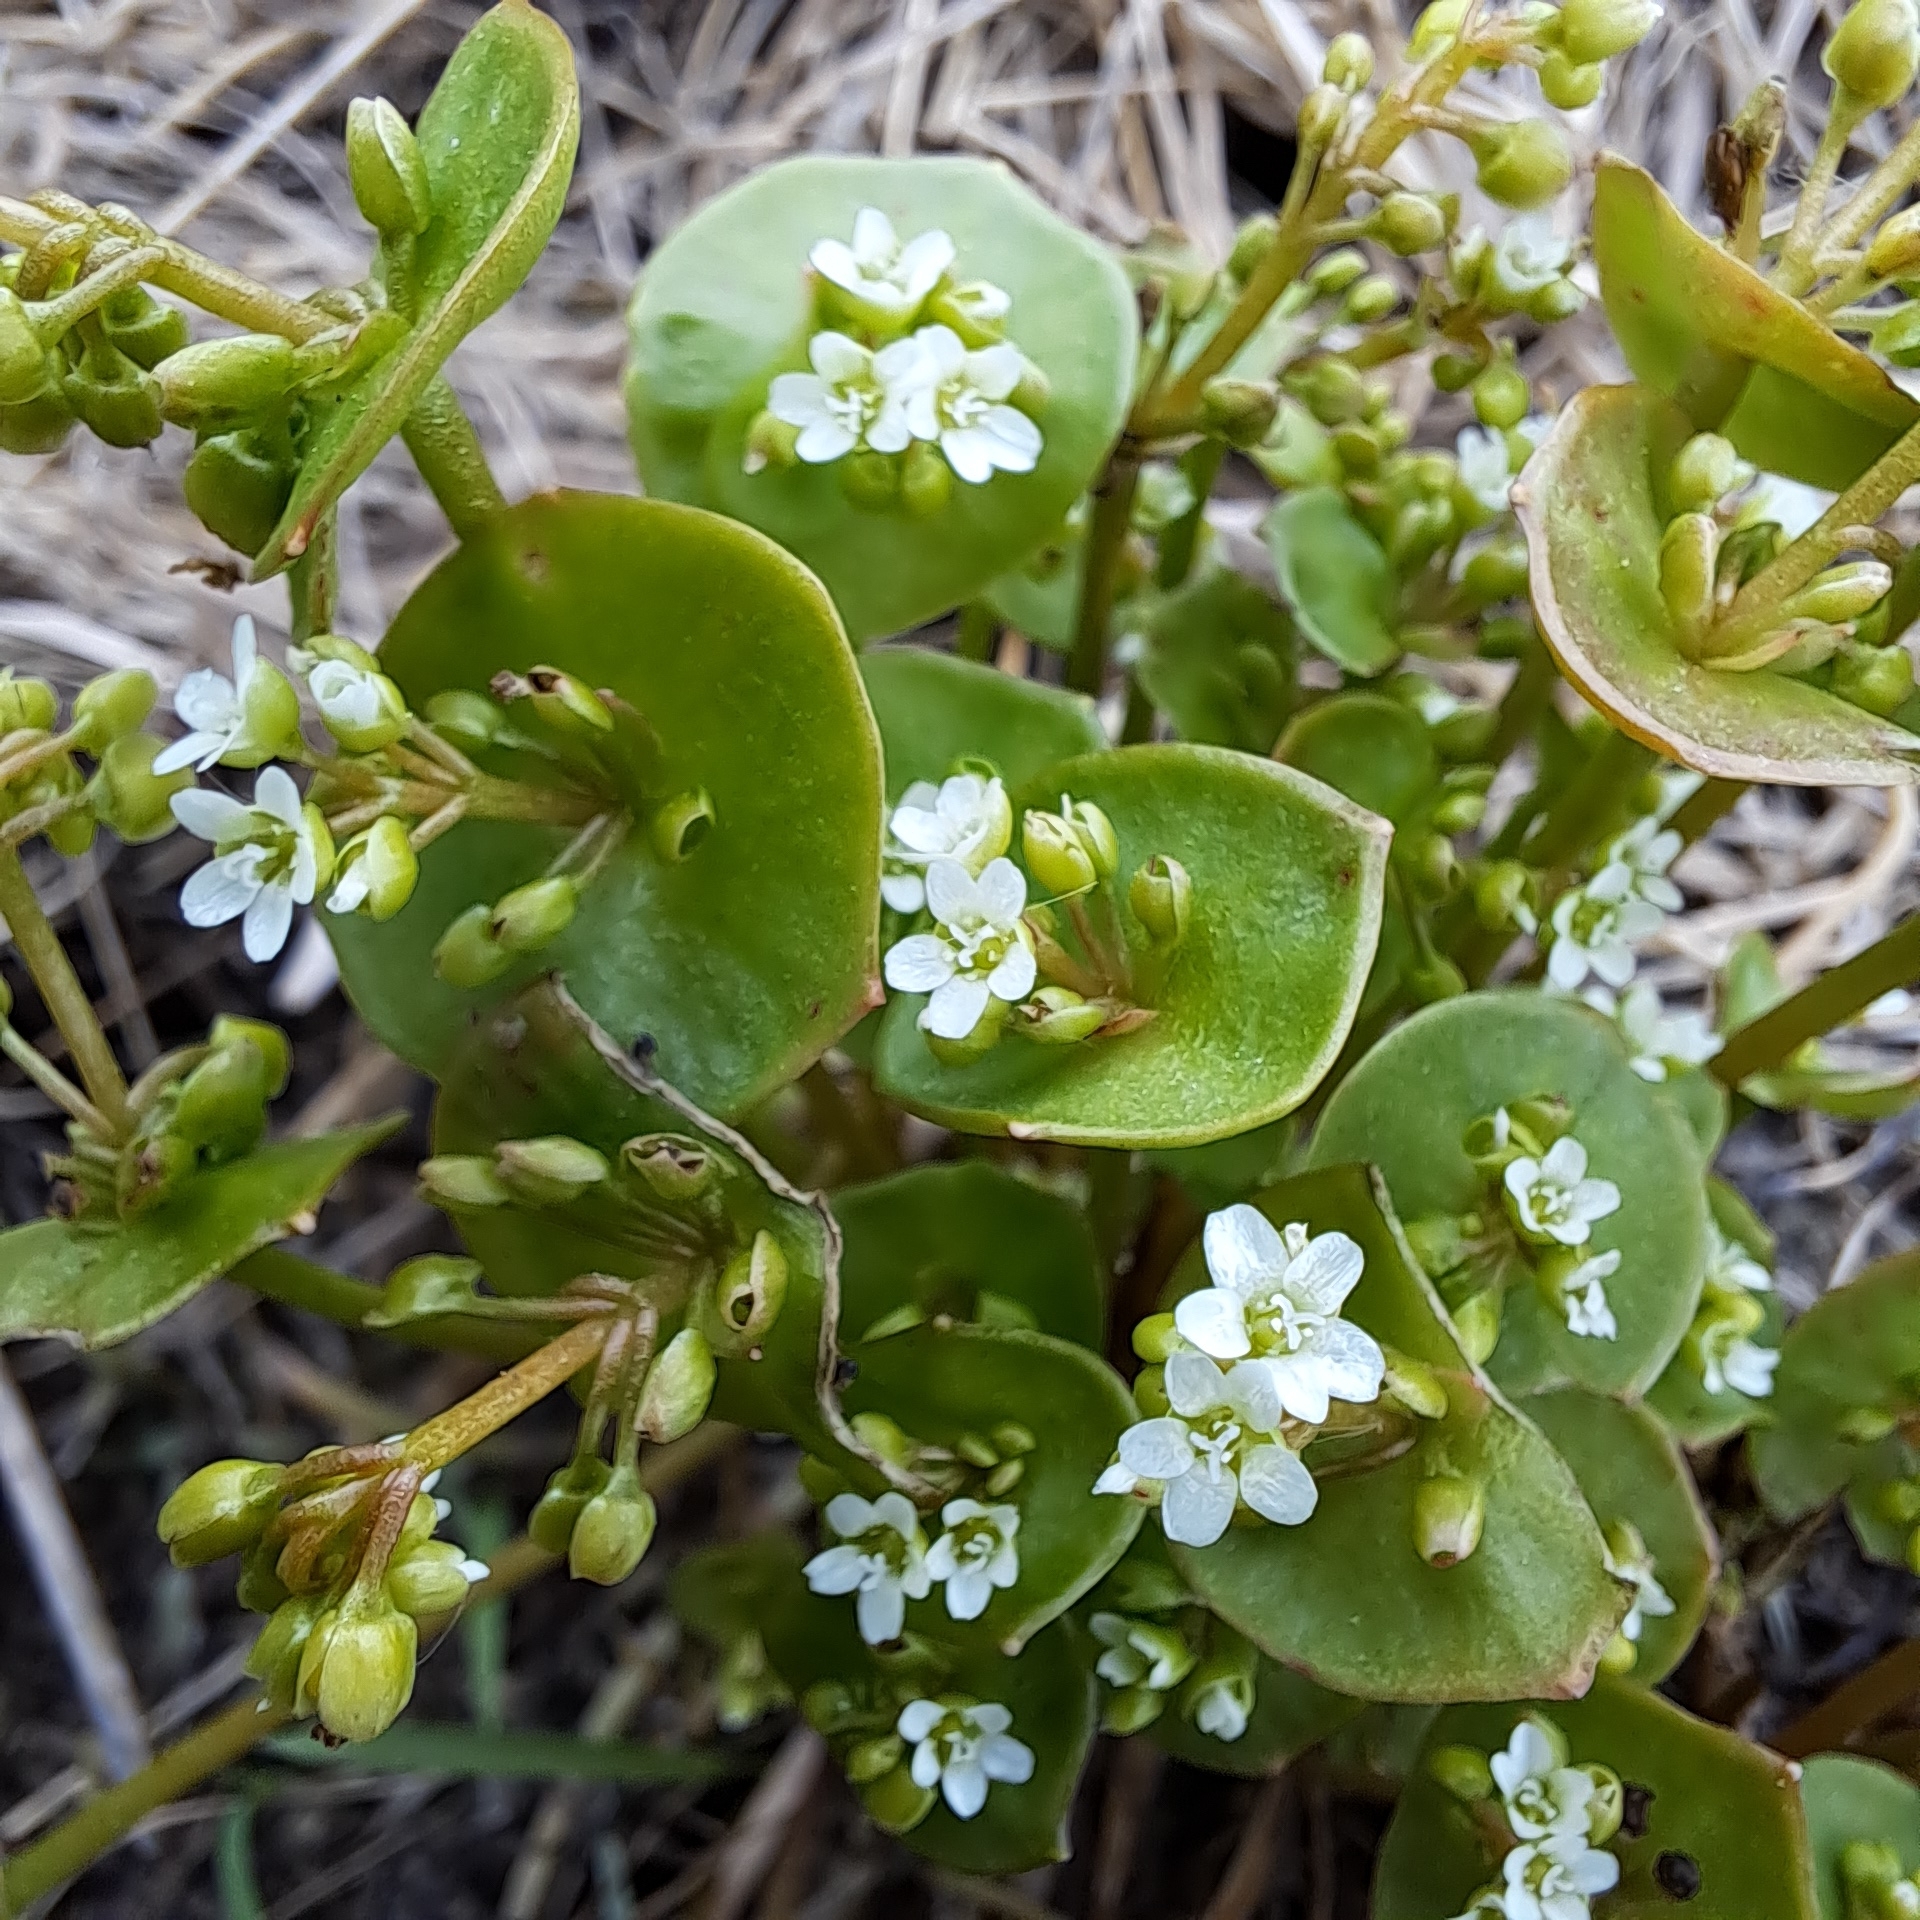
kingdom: Plantae
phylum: Tracheophyta
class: Magnoliopsida
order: Caryophyllales
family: Montiaceae
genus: Claytonia
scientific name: Claytonia perfoliata
